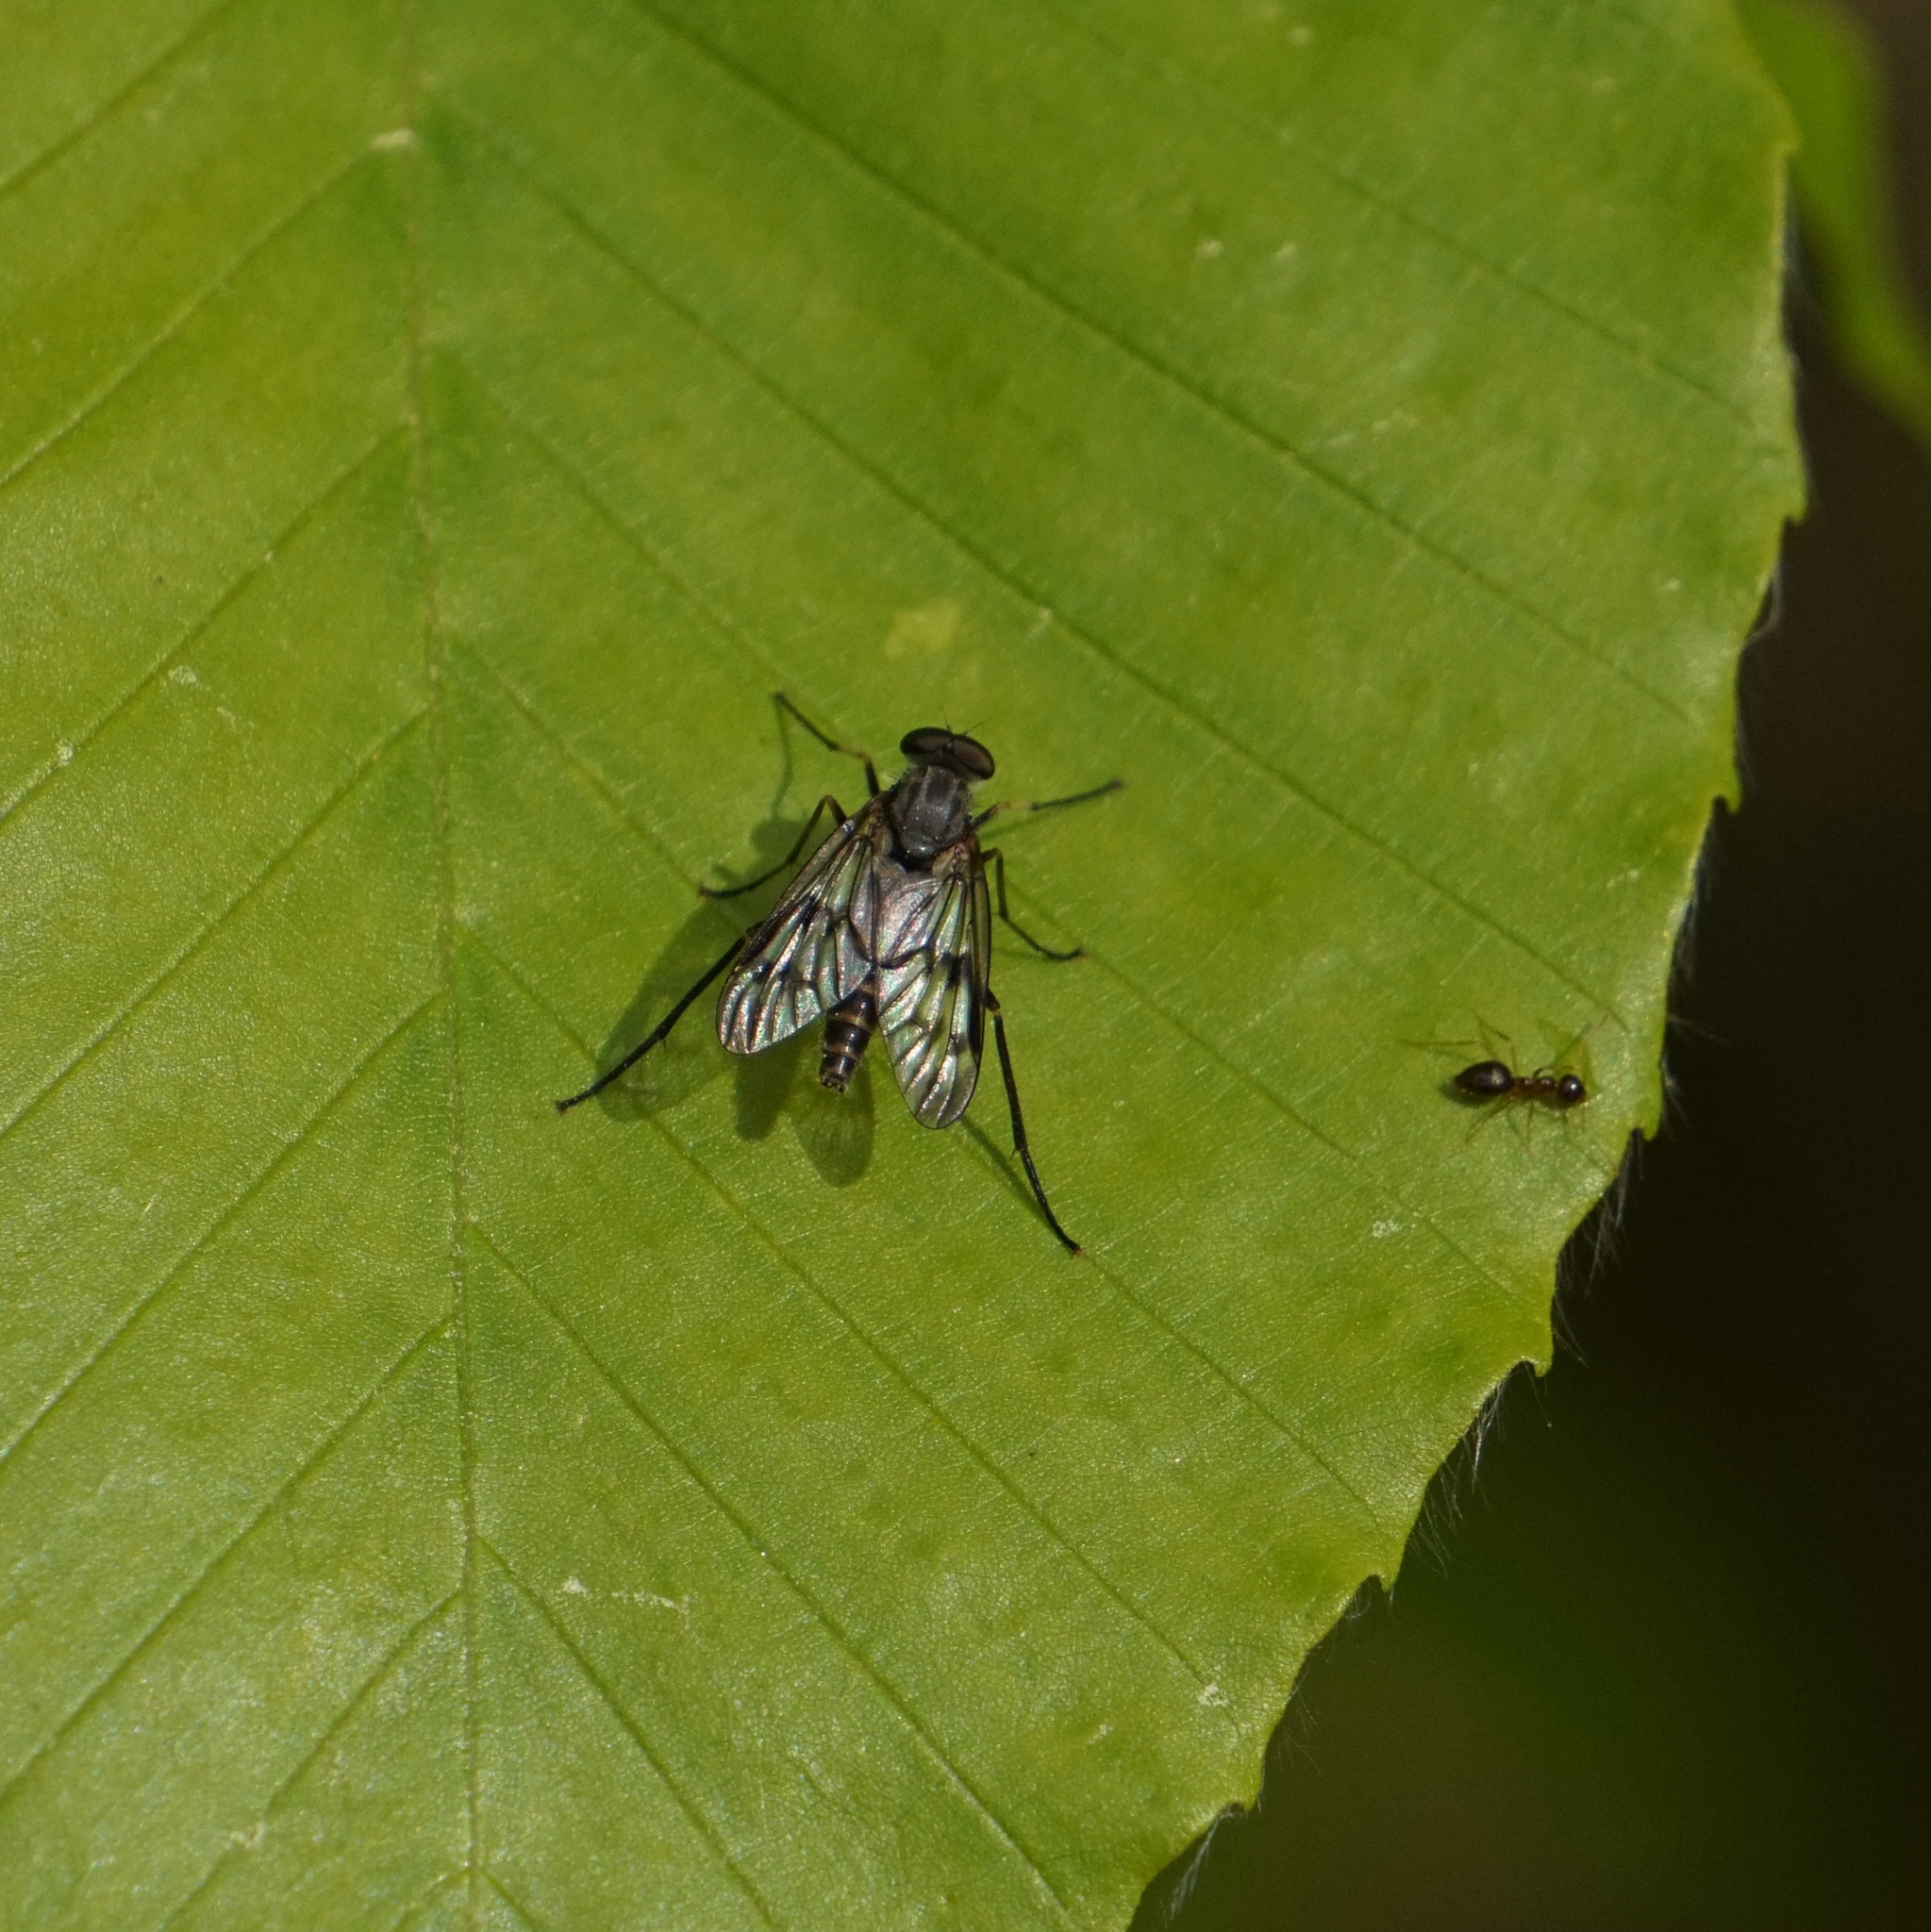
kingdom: Animalia
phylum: Arthropoda
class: Insecta
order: Diptera
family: Rhagionidae
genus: Rhagio
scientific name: Rhagio mystaceus
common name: Common snipe fly
